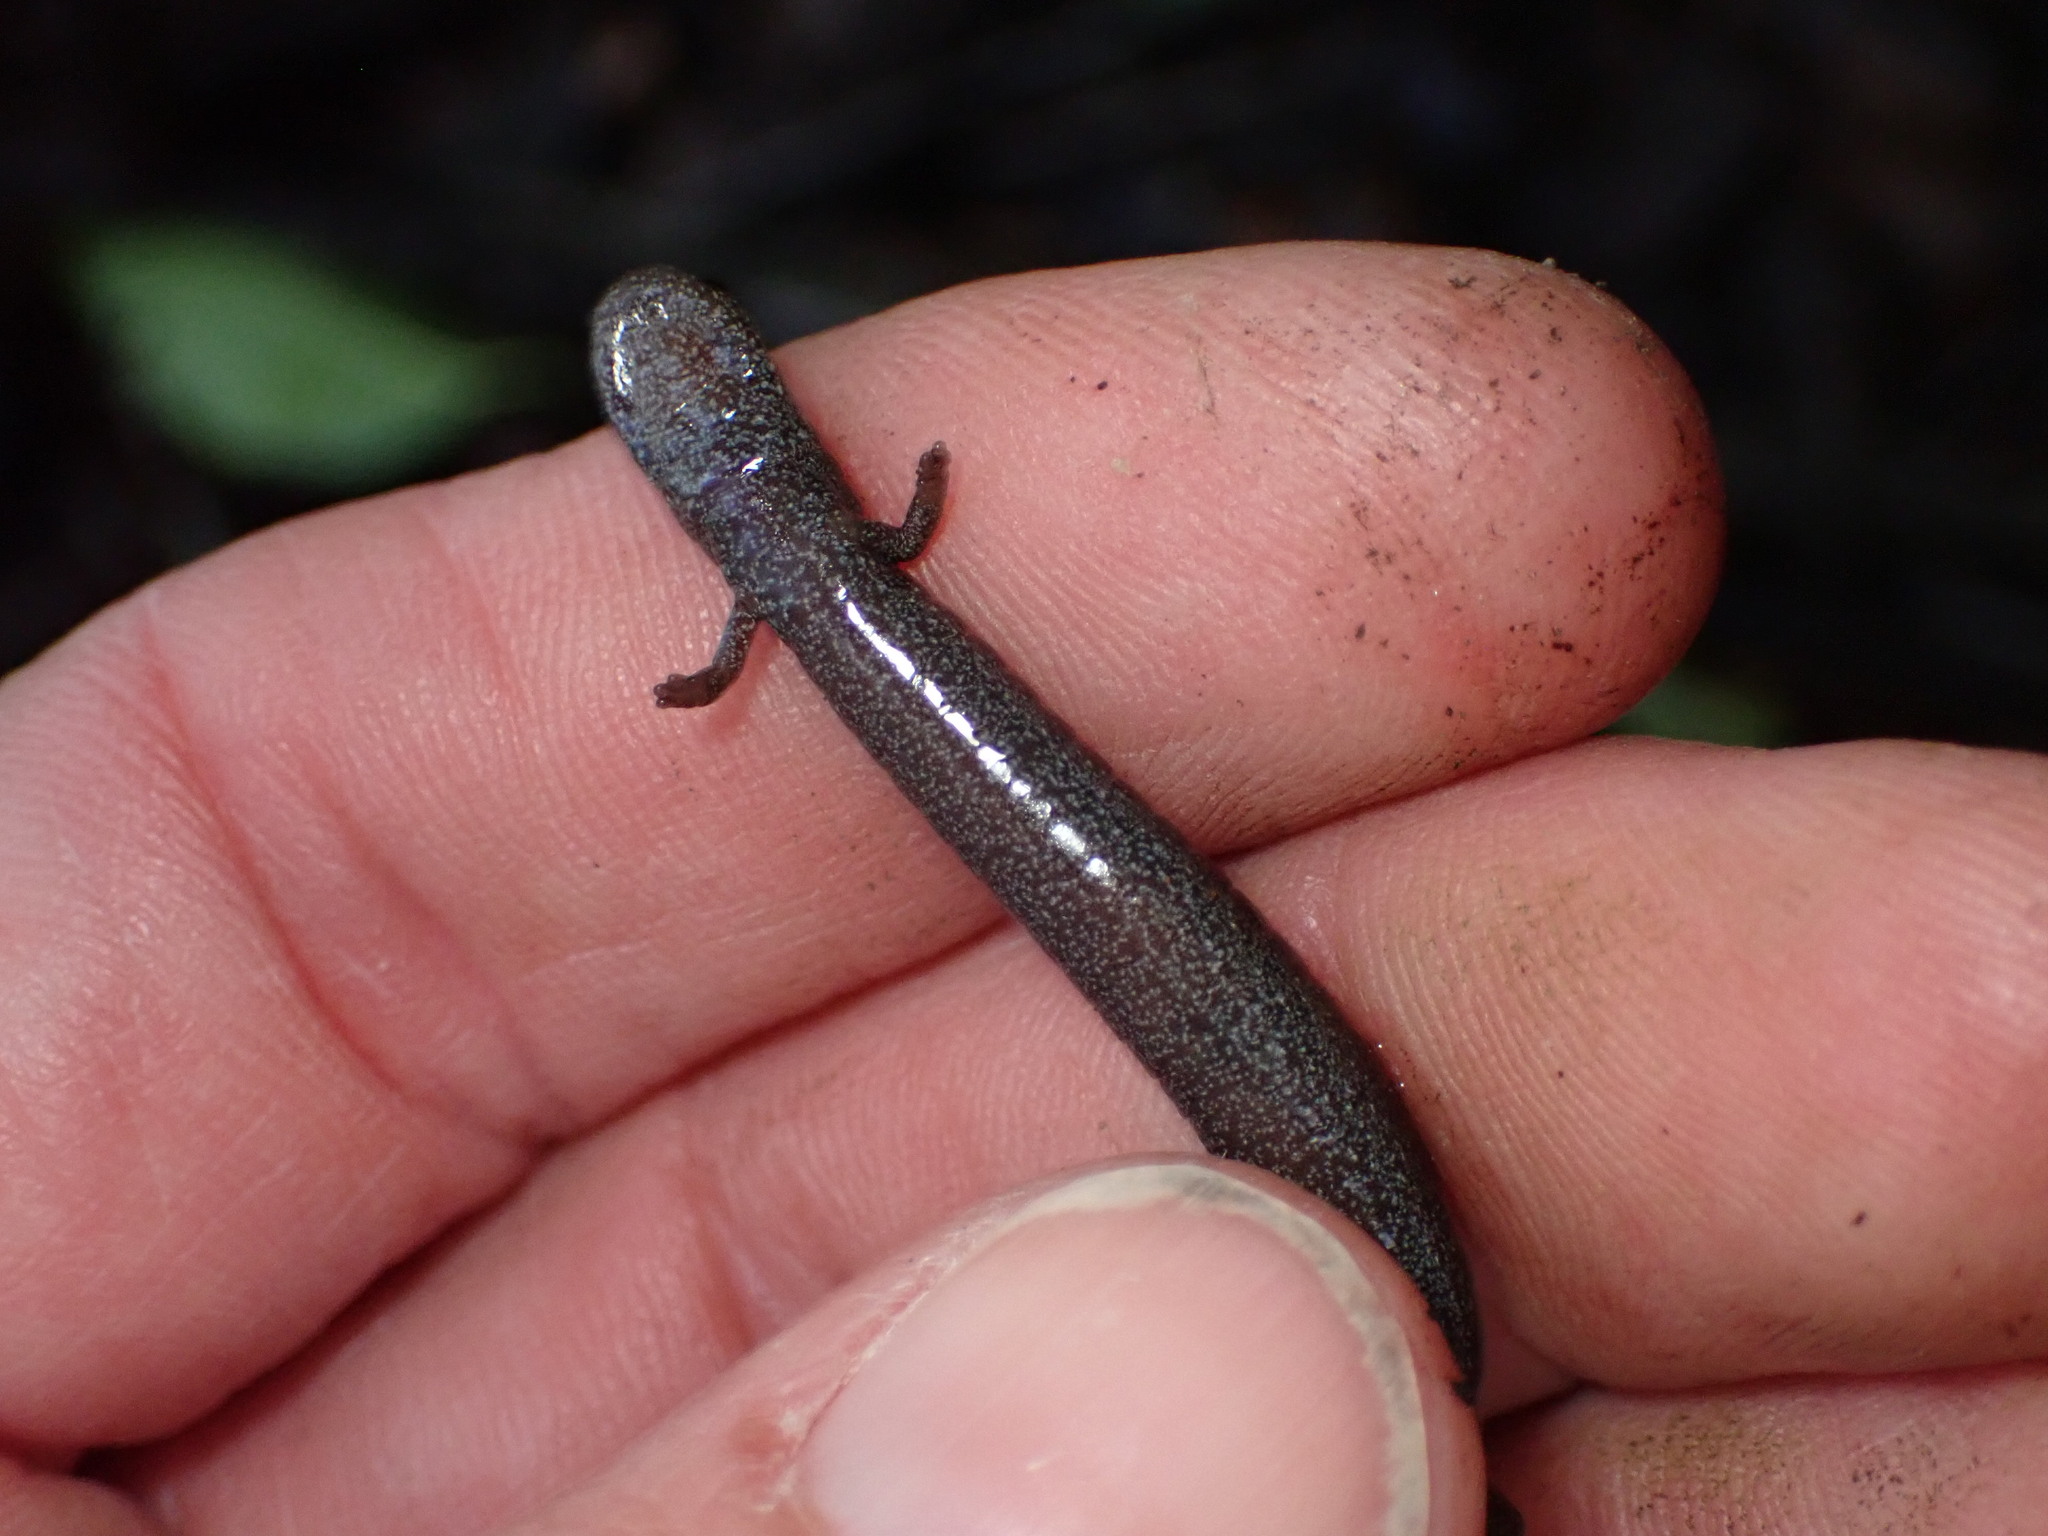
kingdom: Animalia
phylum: Chordata
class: Amphibia
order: Caudata
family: Plethodontidae
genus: Batrachoseps
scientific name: Batrachoseps nigriventris
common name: Black-bellied slender salamander
